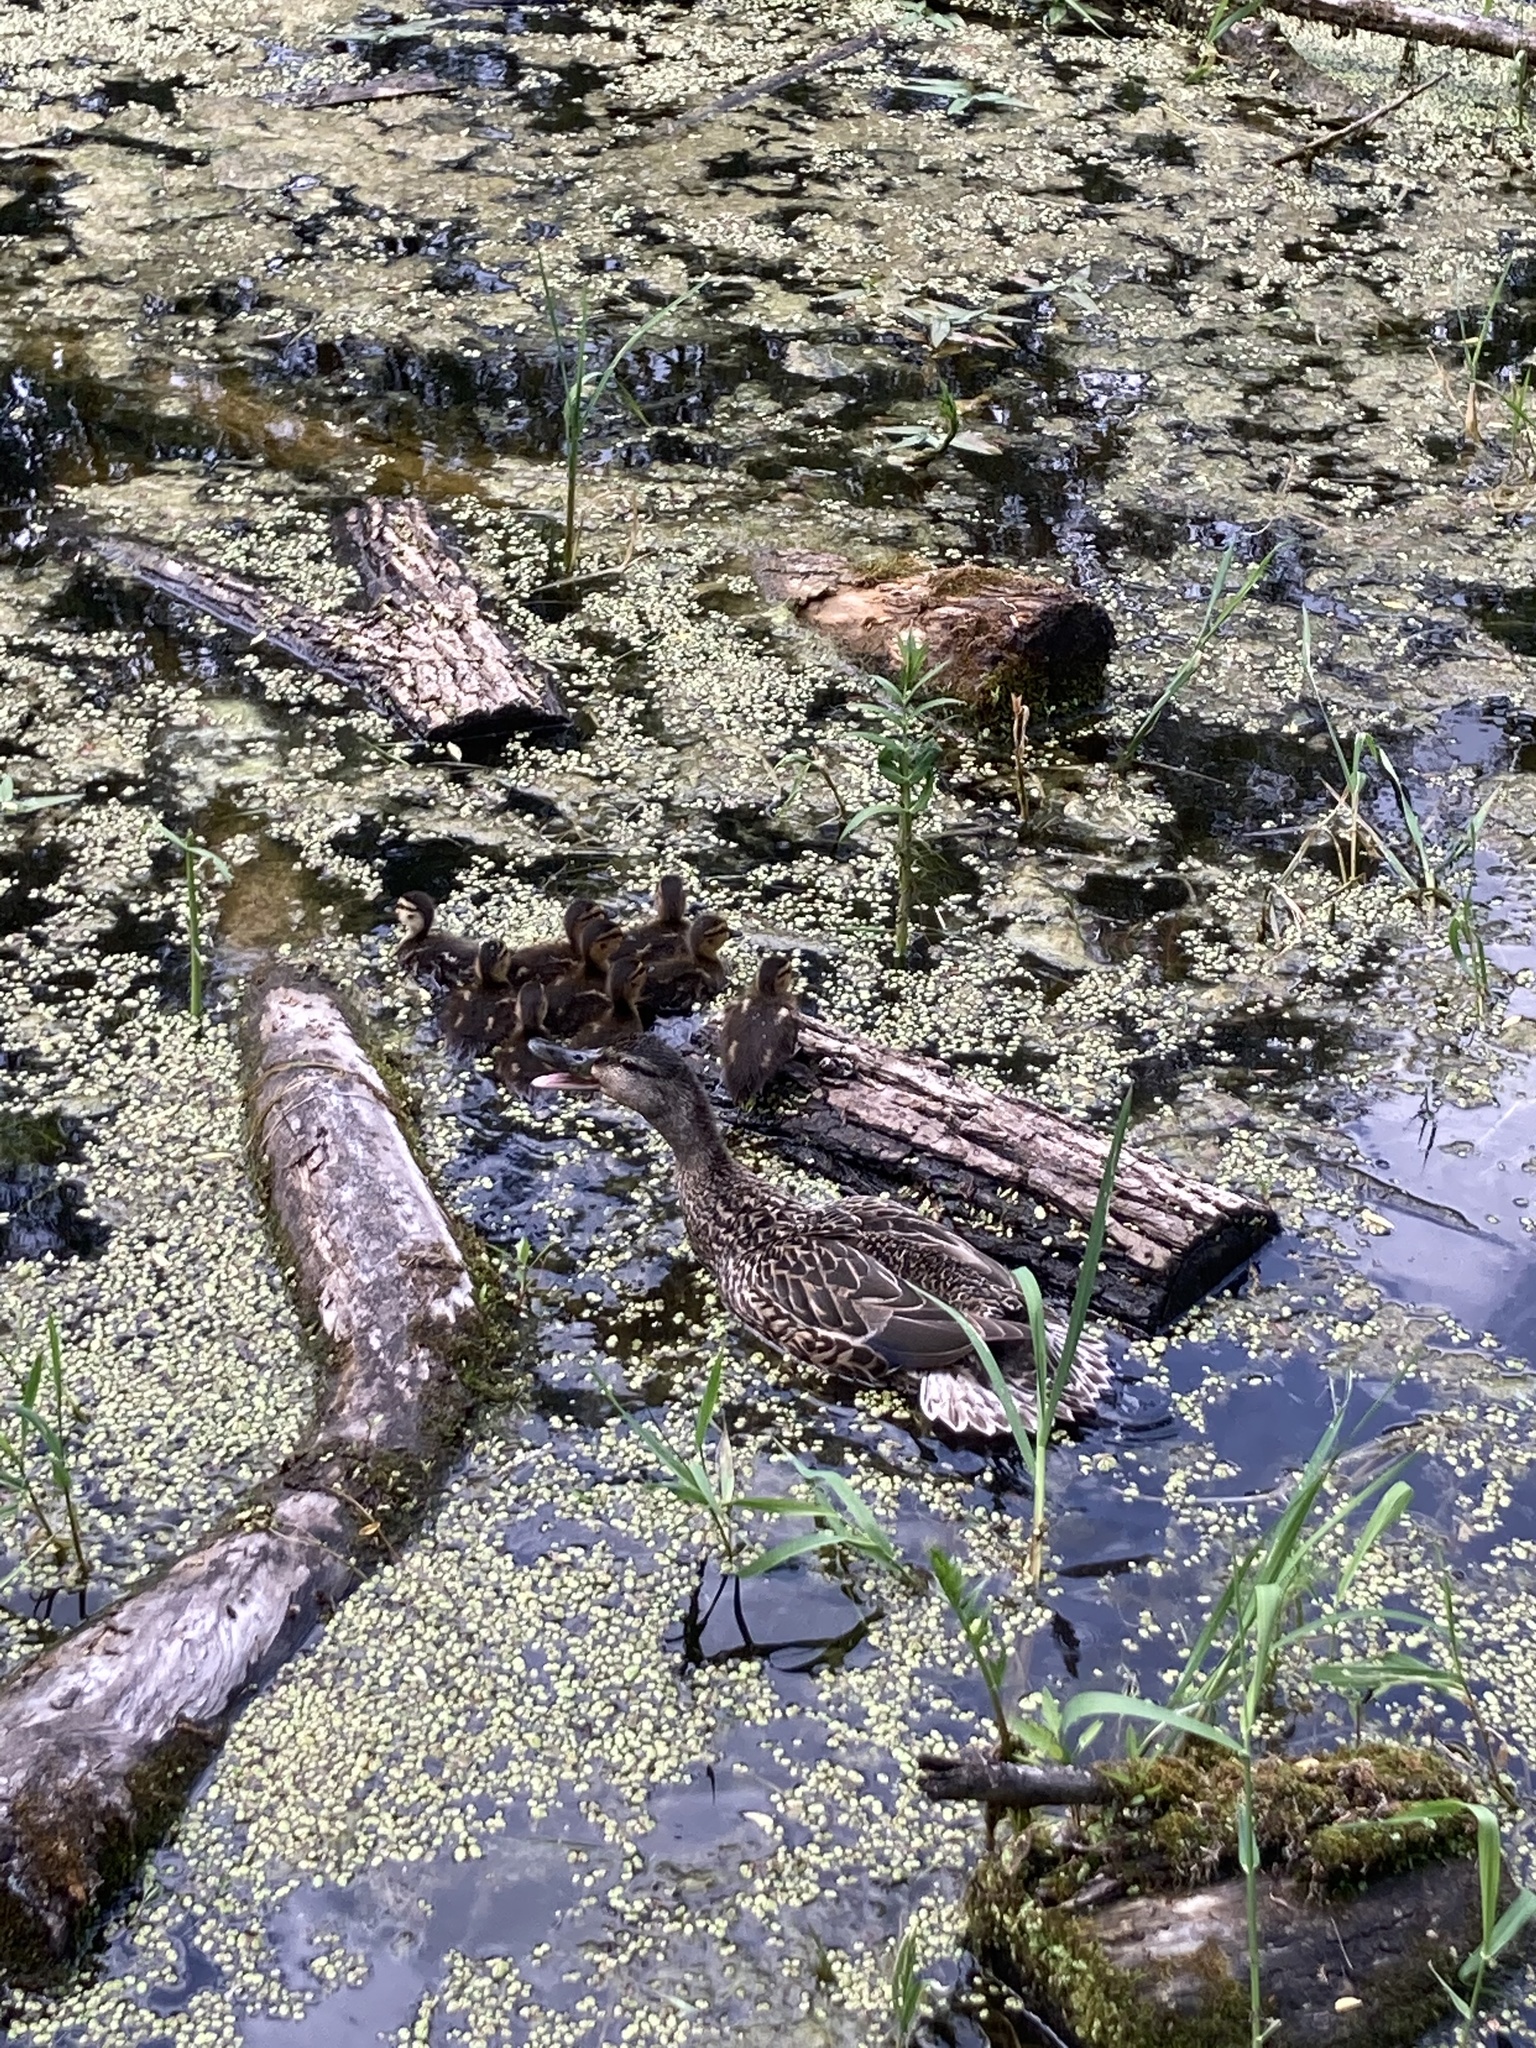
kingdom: Animalia
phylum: Chordata
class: Aves
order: Anseriformes
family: Anatidae
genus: Anas
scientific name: Anas platyrhynchos
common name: Mallard
